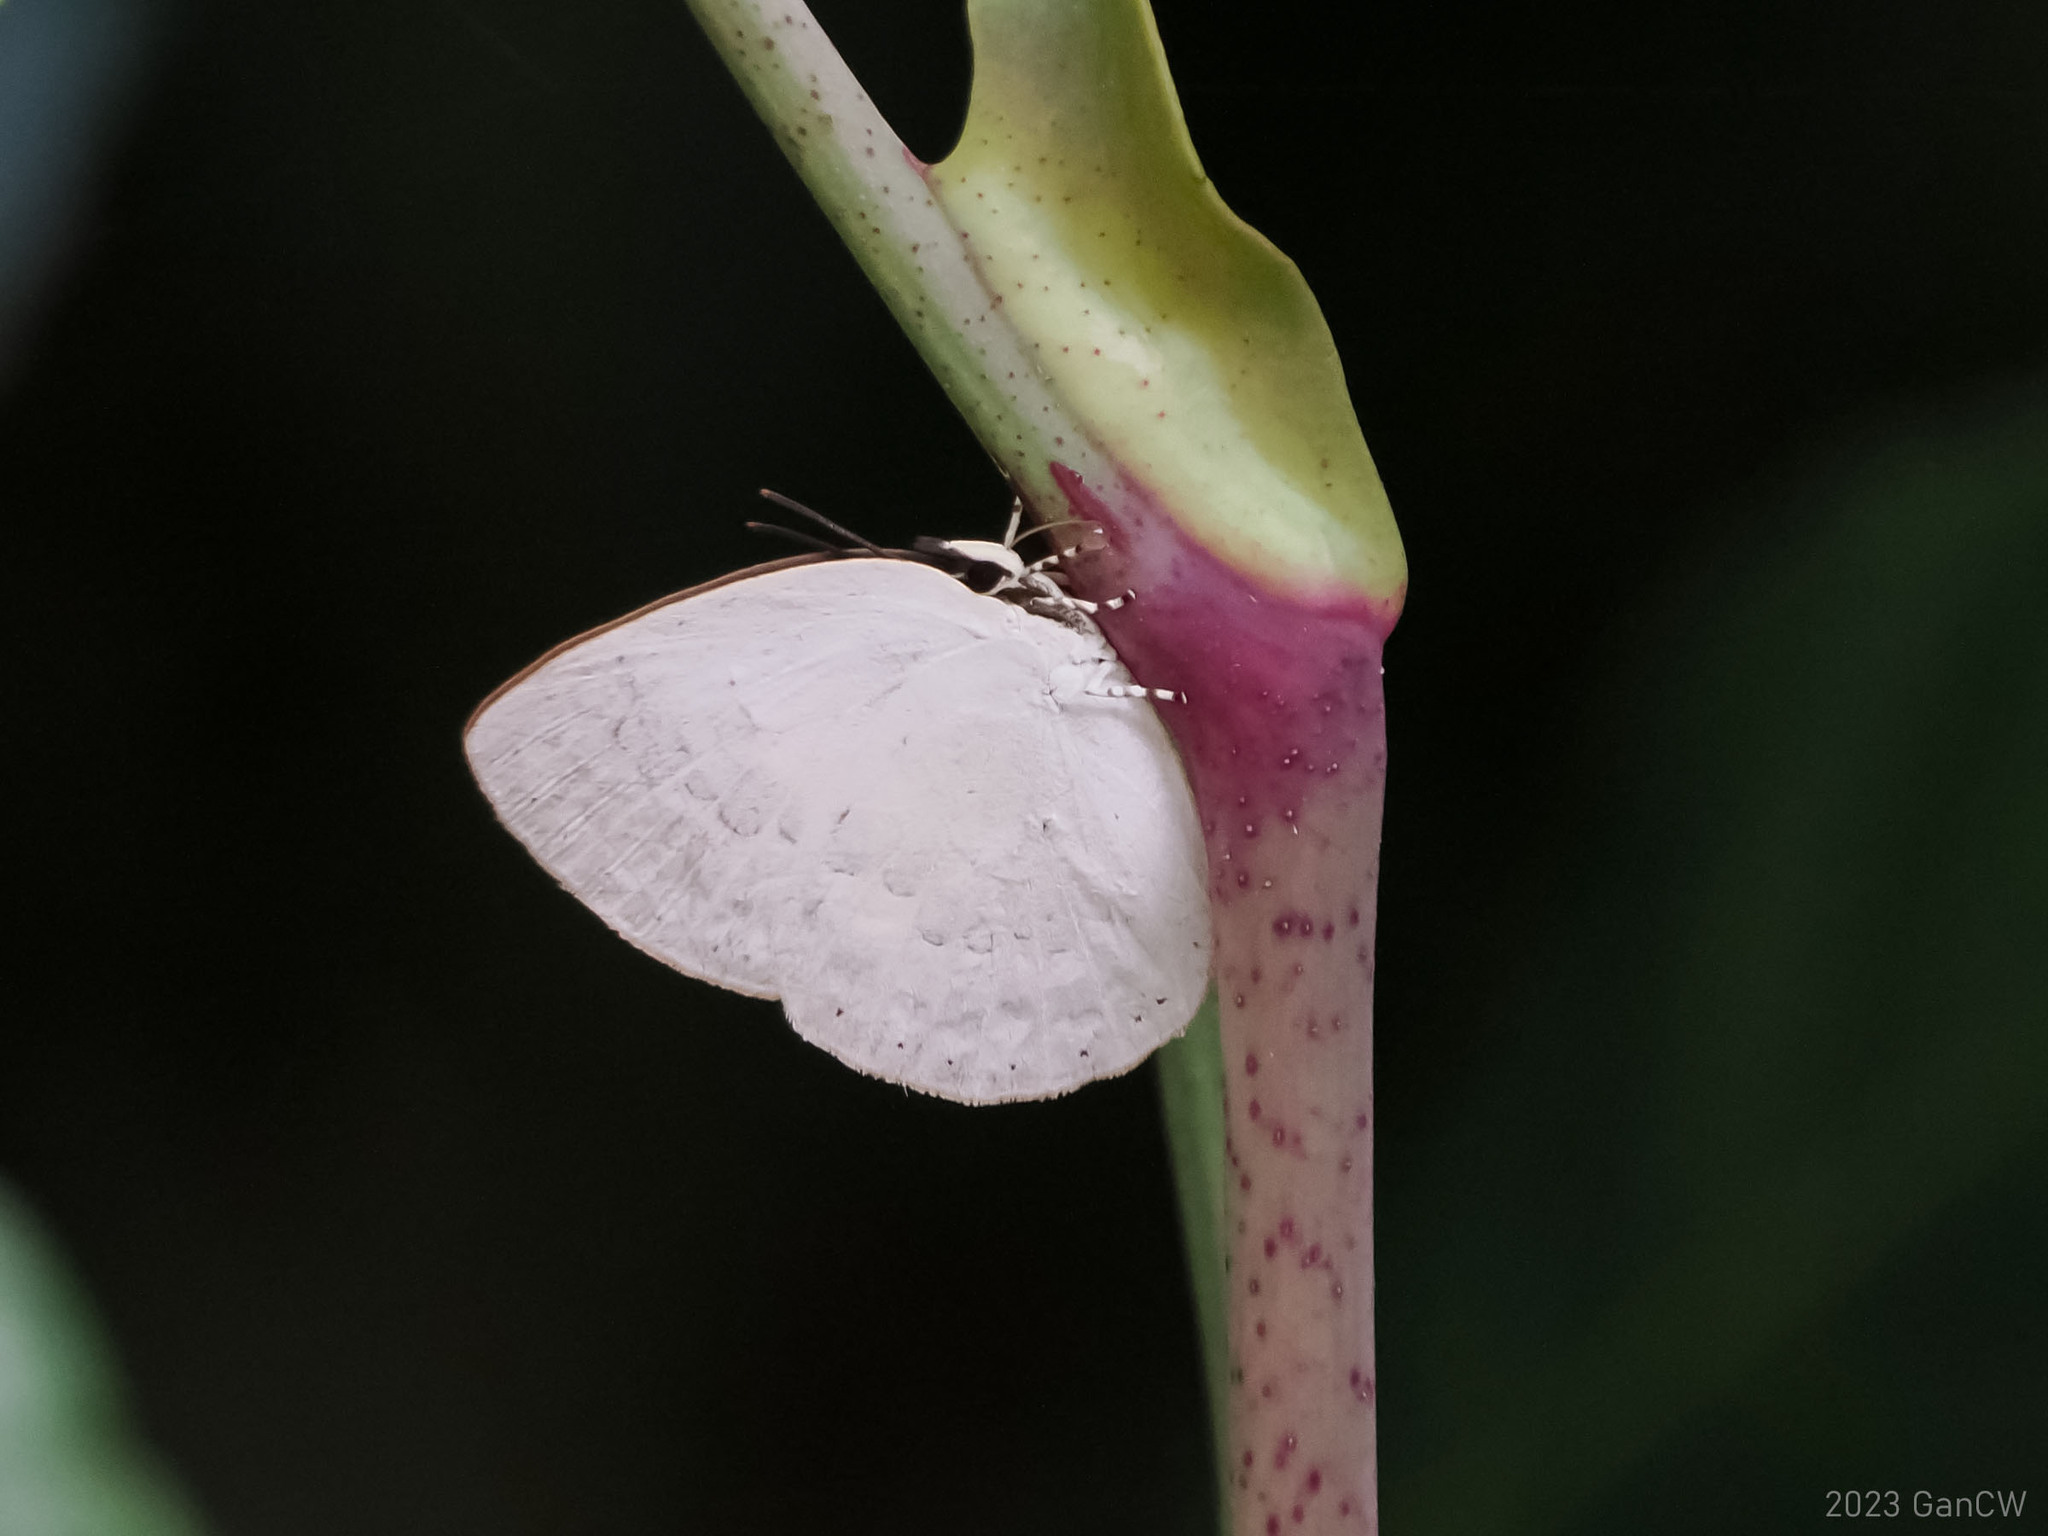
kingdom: Animalia
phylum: Arthropoda
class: Insecta
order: Lepidoptera
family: Lycaenidae
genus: Curetis
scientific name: Curetis tagalica
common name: Southern sunbeam
